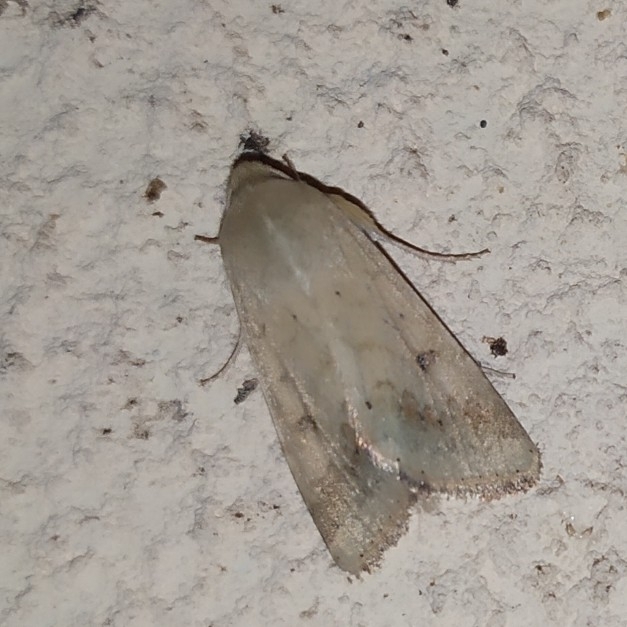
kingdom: Animalia
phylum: Arthropoda
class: Insecta
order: Lepidoptera
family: Noctuidae
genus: Helicoverpa
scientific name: Helicoverpa armigera
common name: Cotton bollworm
